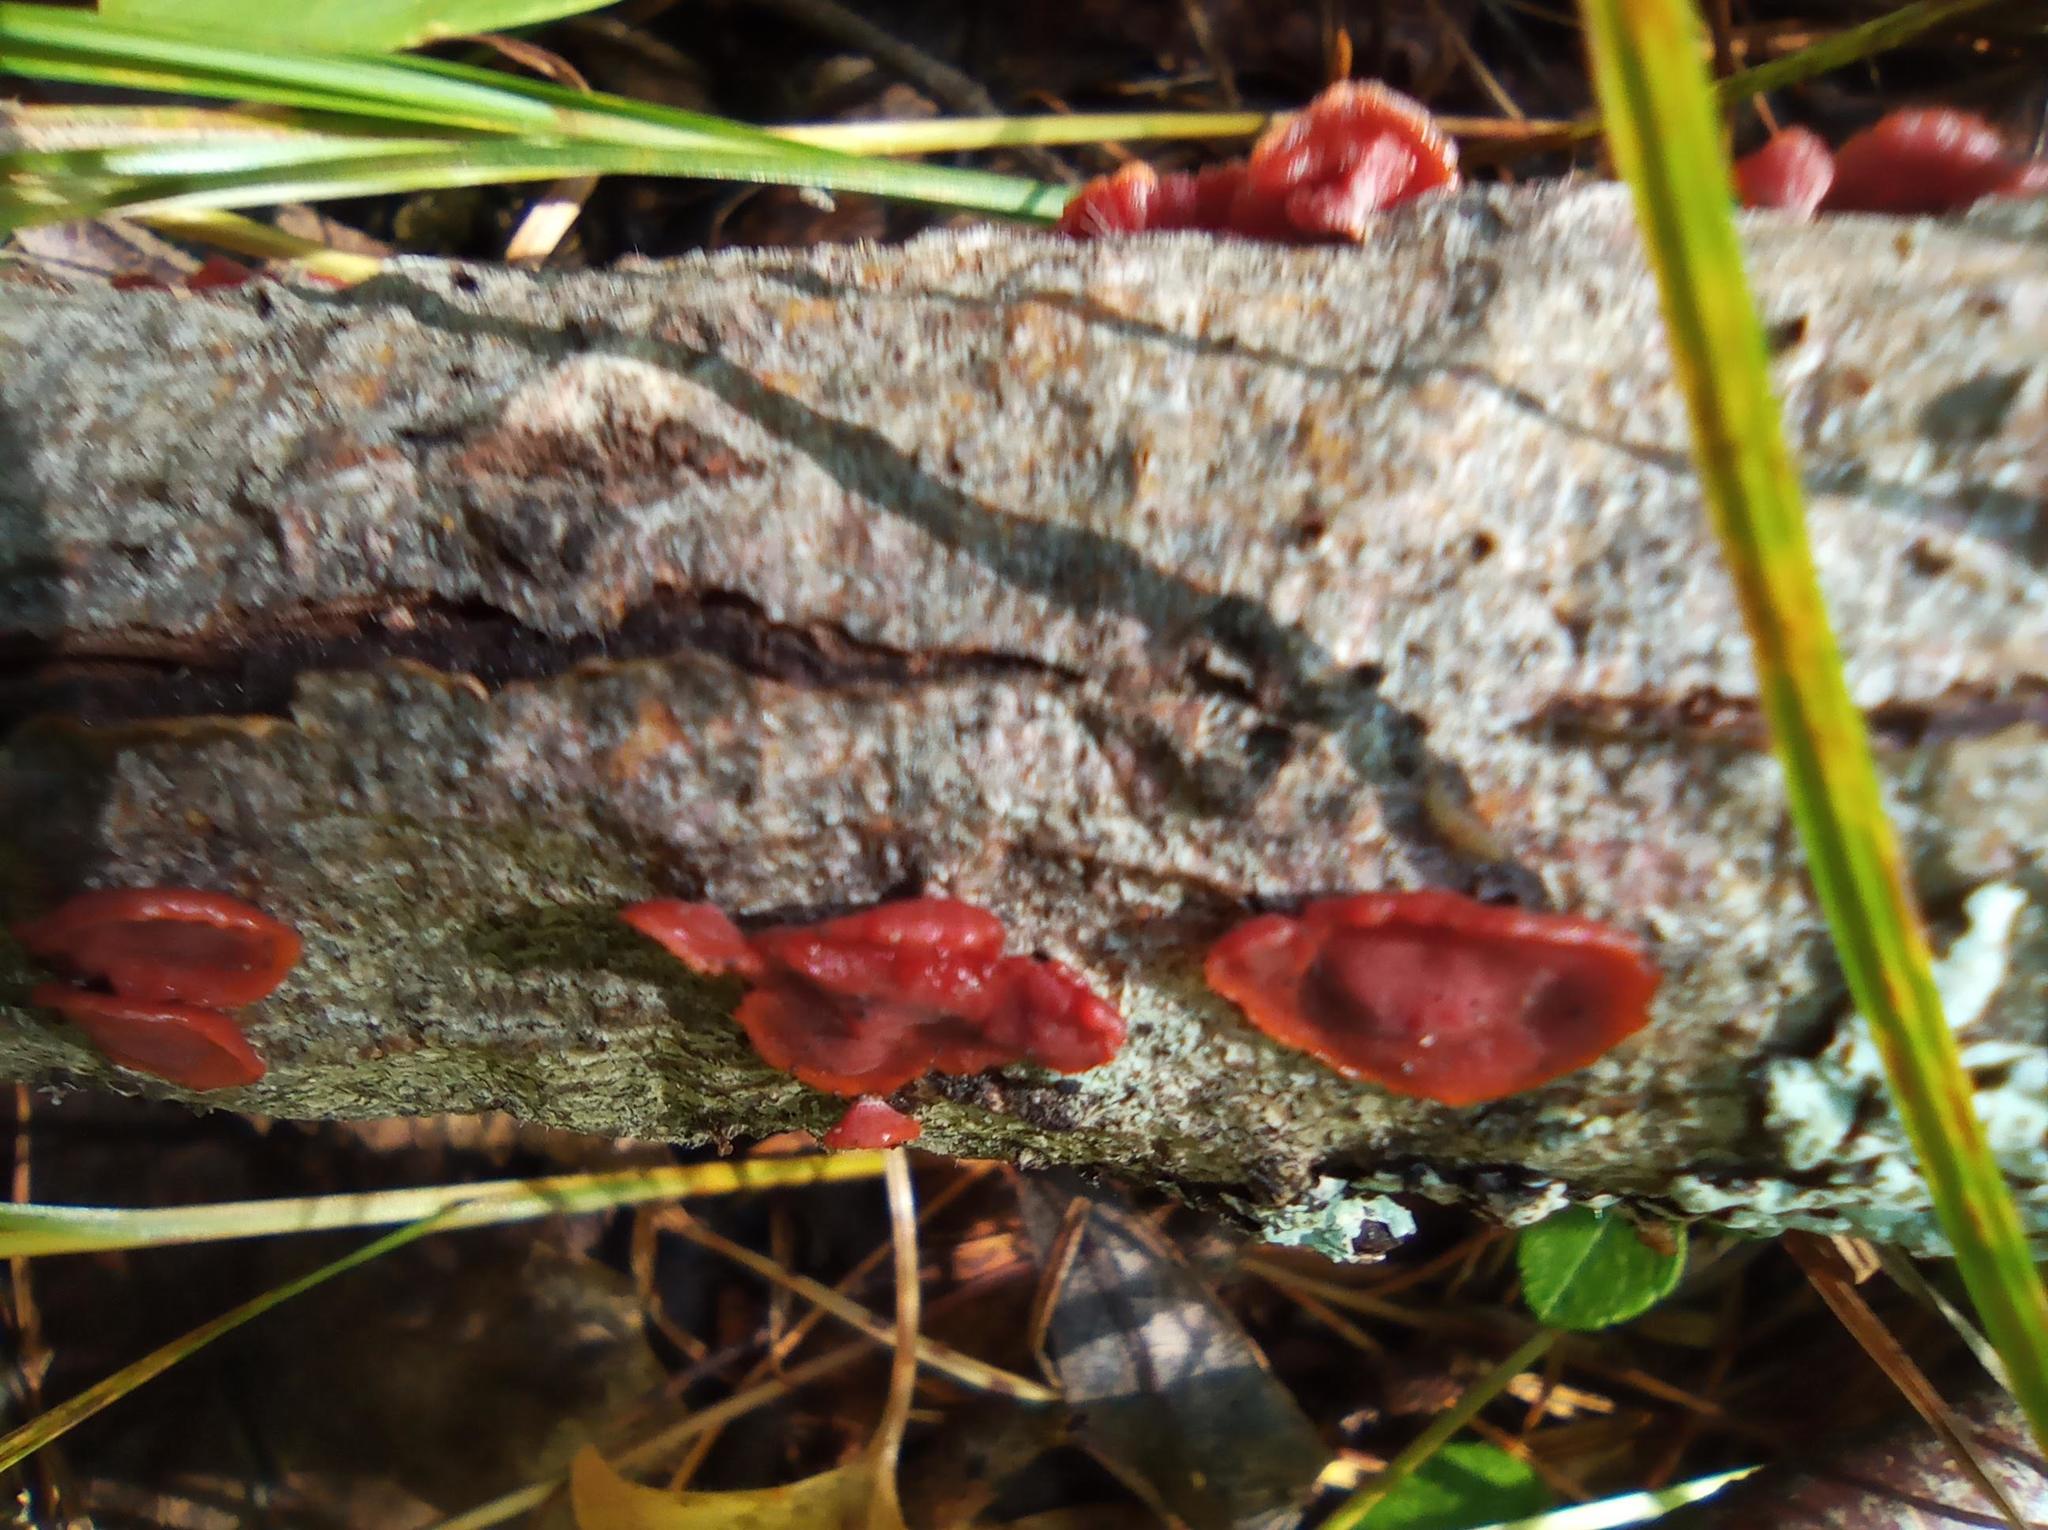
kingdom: Fungi
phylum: Basidiomycota
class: Agaricomycetes
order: Corticiales
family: Vuilleminiaceae
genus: Cytidia
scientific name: Cytidia salicina
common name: Scarlet splash
